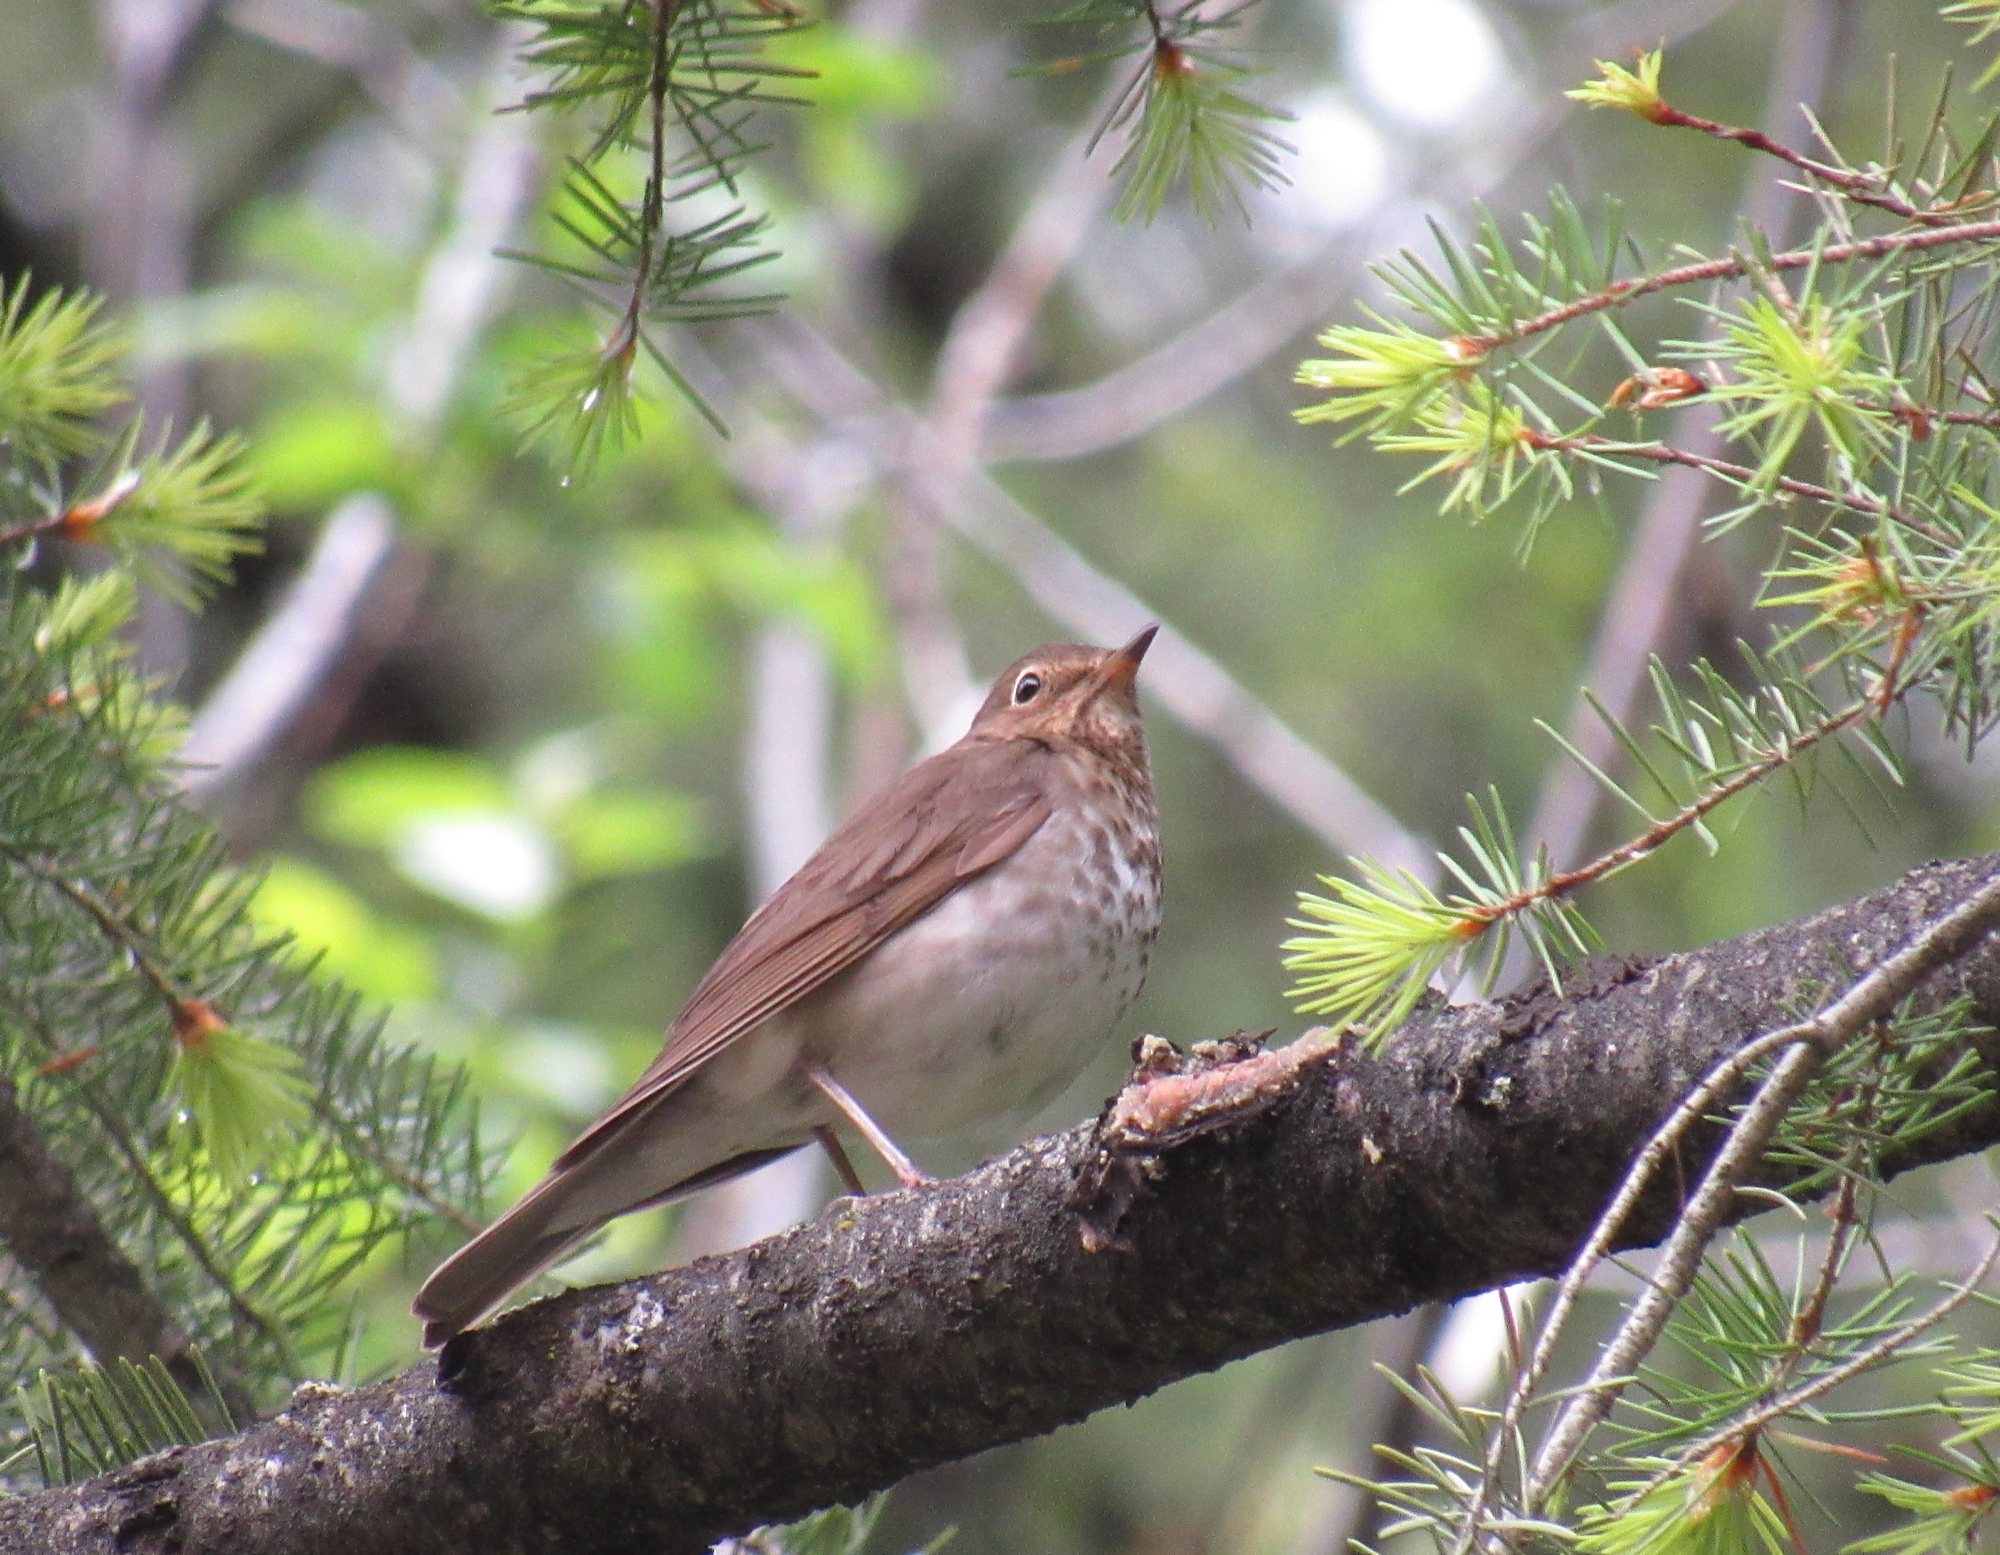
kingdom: Animalia
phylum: Chordata
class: Aves
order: Passeriformes
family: Turdidae
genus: Catharus
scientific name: Catharus ustulatus
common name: Swainson's thrush
